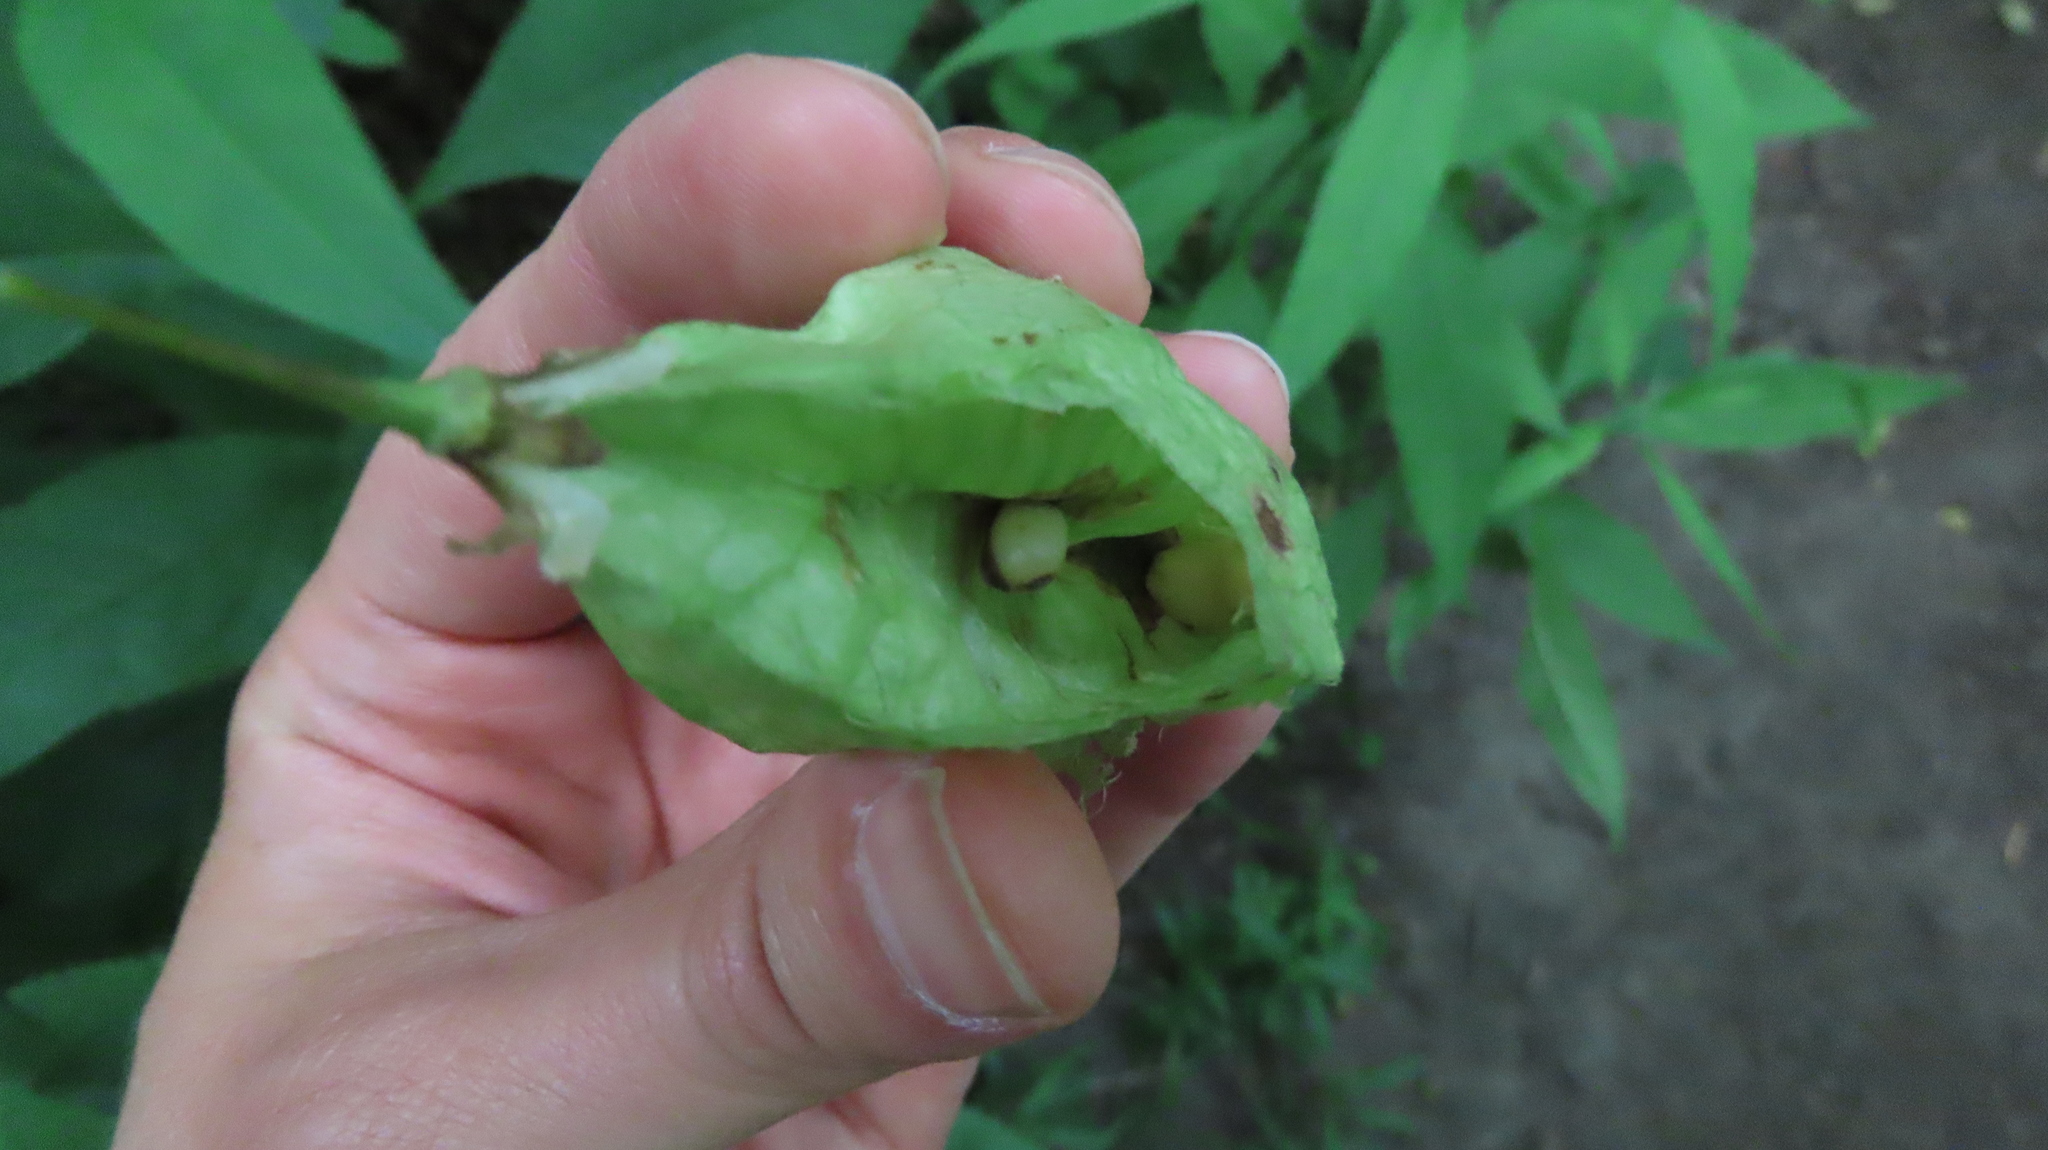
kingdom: Plantae
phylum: Tracheophyta
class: Magnoliopsida
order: Crossosomatales
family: Staphyleaceae
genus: Staphylea
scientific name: Staphylea trifolia
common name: American bladdernut
